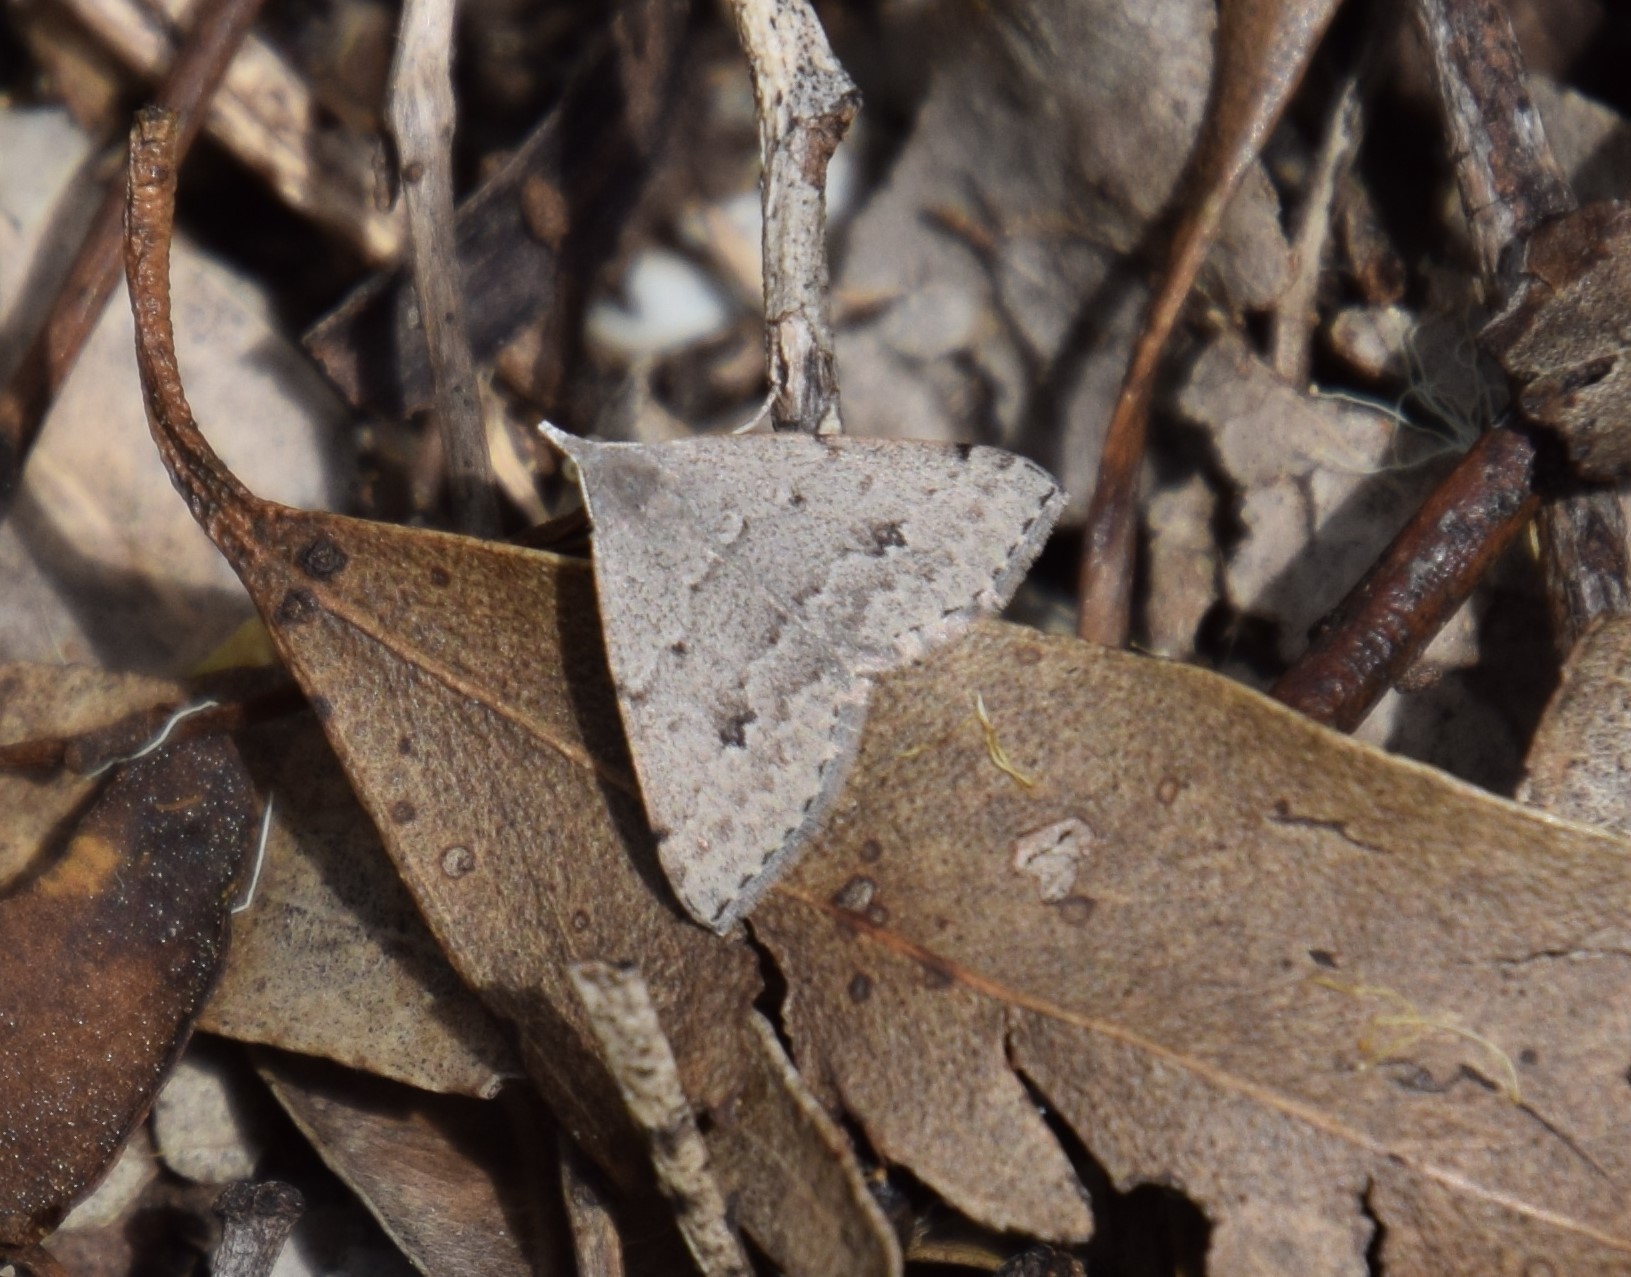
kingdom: Animalia
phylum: Arthropoda
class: Insecta
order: Lepidoptera
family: Geometridae
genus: Dichromodes
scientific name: Dichromodes estigmaria
